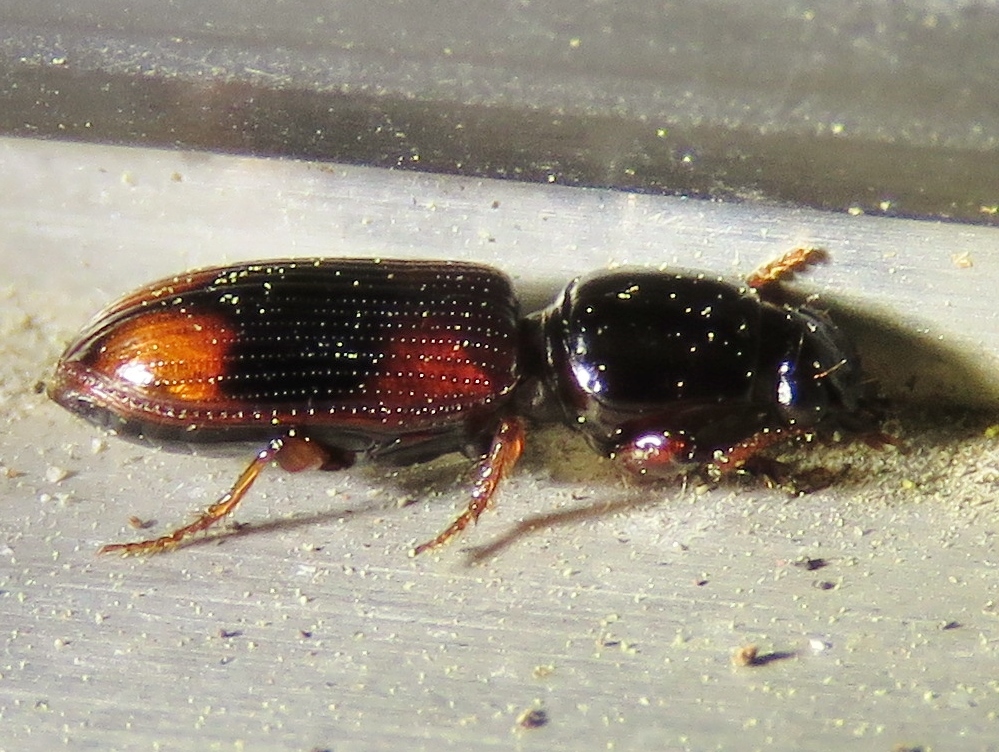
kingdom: Animalia
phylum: Arthropoda
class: Insecta
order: Coleoptera
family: Carabidae
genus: Clivina
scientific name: Clivina bipustulata
